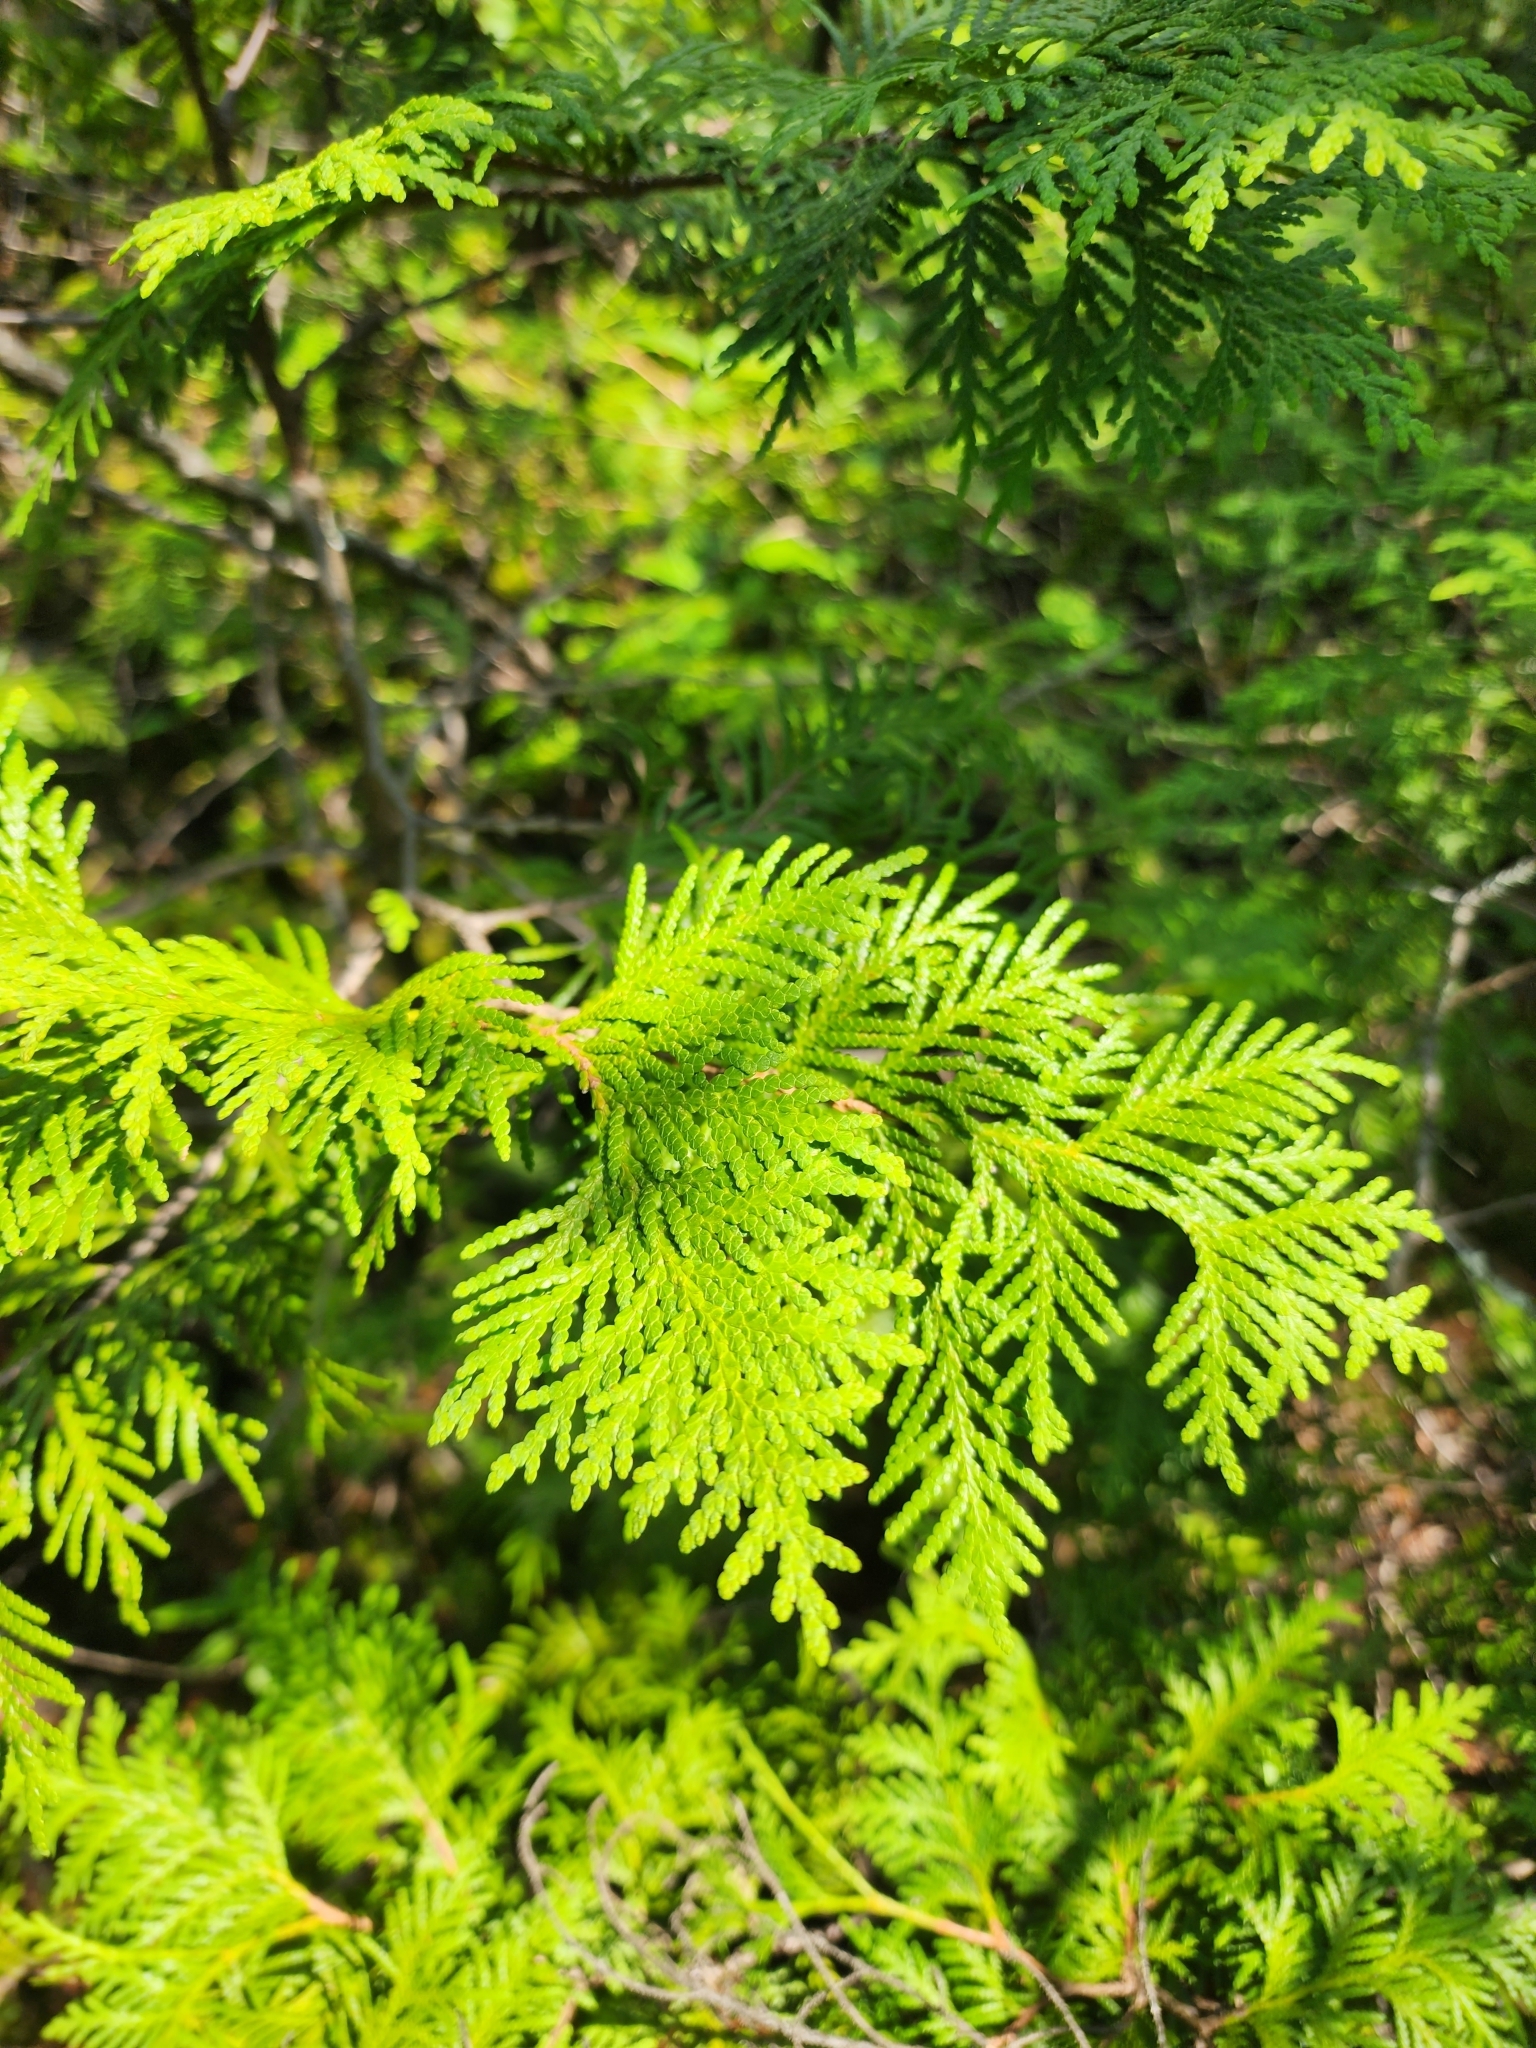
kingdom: Plantae
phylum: Tracheophyta
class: Pinopsida
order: Pinales
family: Cupressaceae
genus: Thuja
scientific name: Thuja occidentalis
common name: Northern white-cedar
